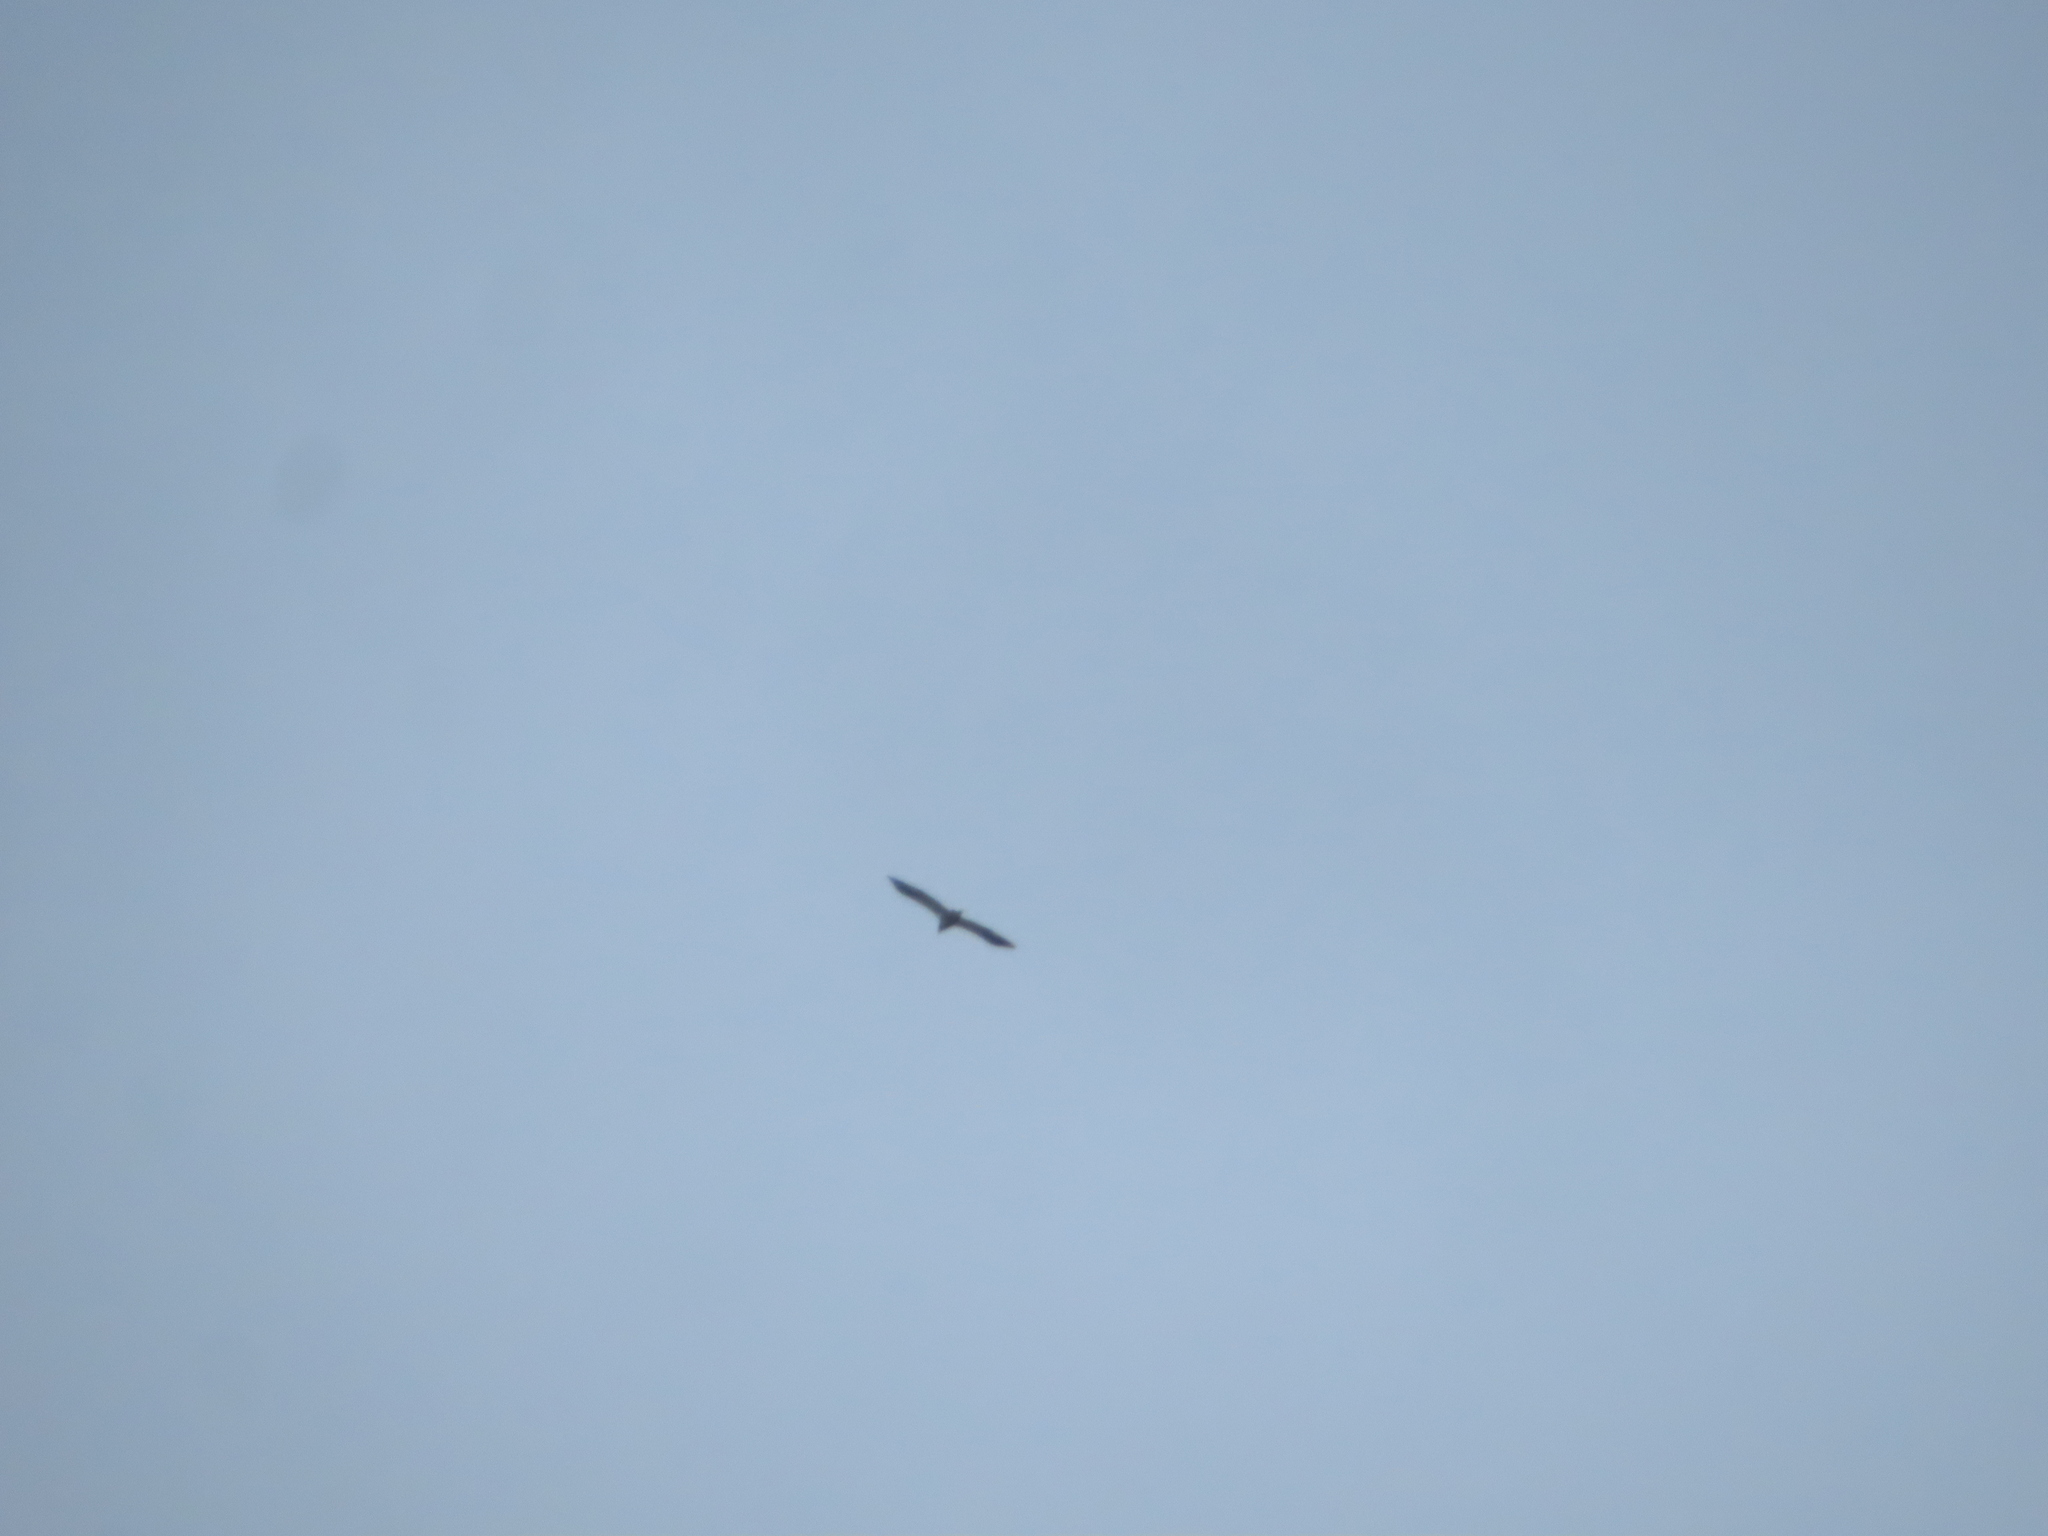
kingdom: Animalia
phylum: Chordata
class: Aves
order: Accipitriformes
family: Accipitridae
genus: Haliaeetus
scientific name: Haliaeetus leucocephalus
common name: Bald eagle
